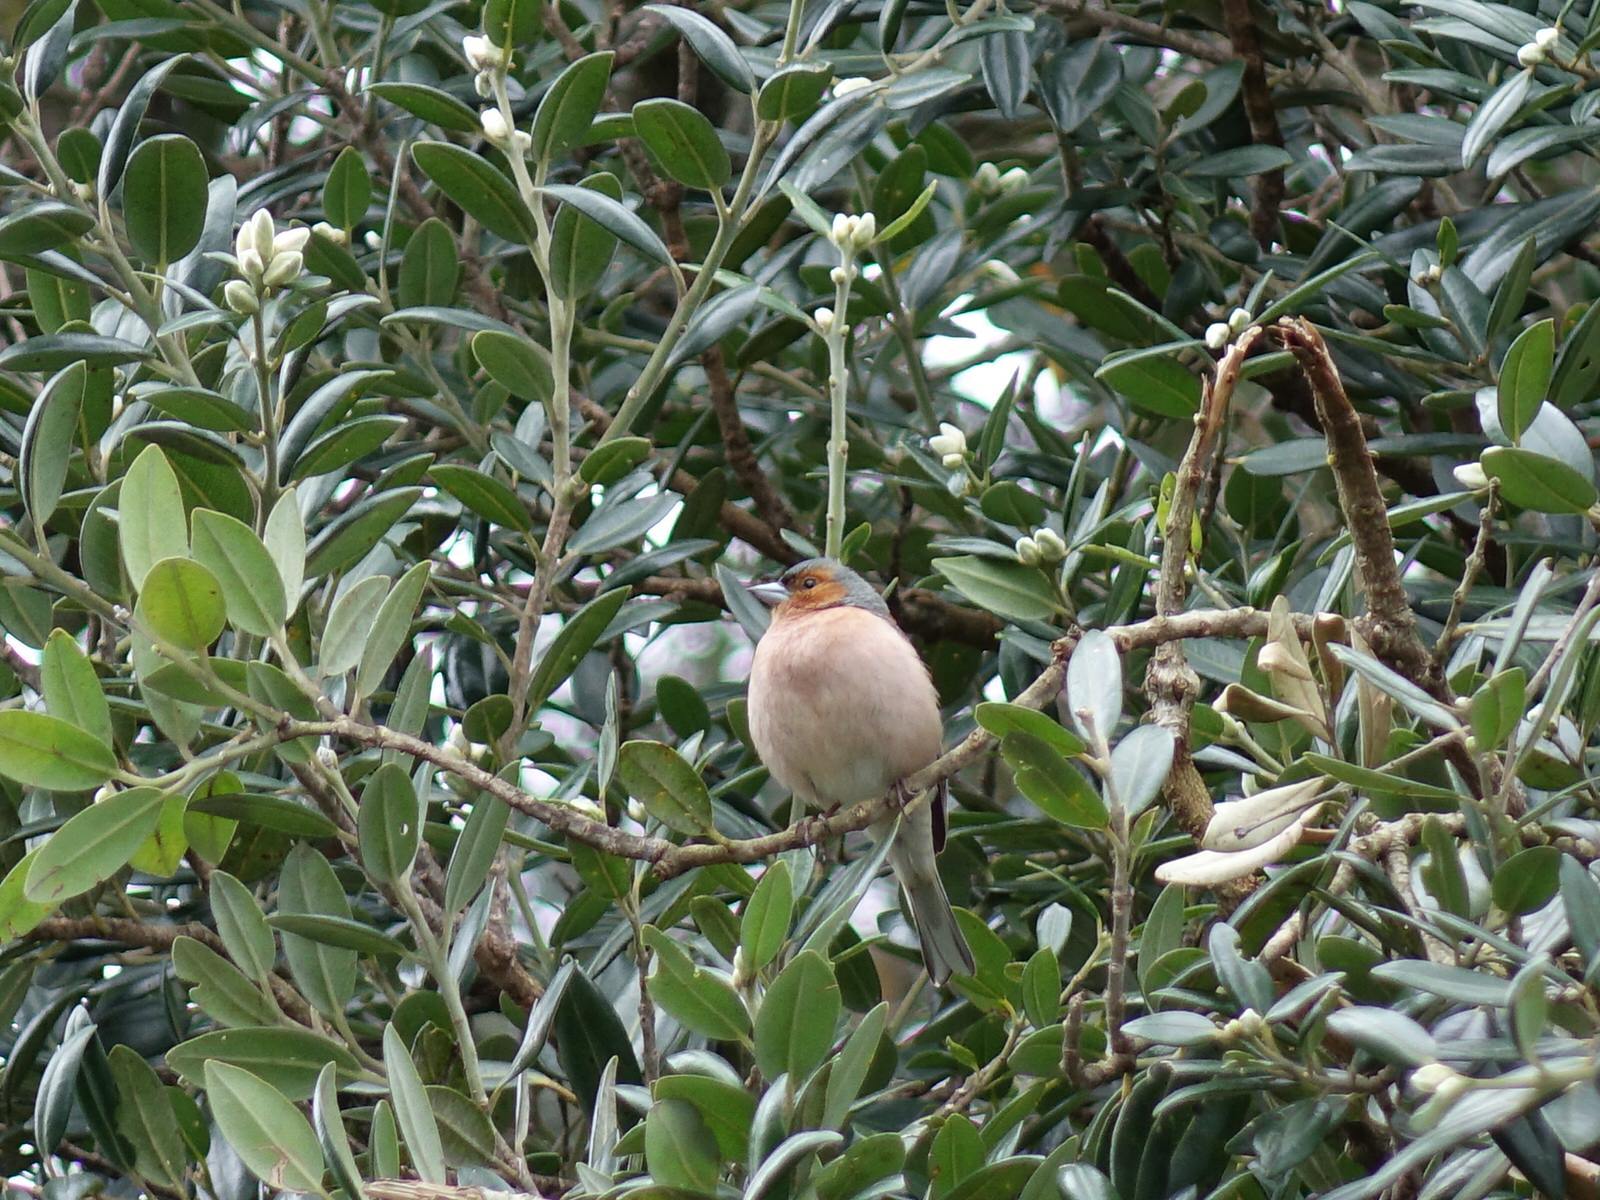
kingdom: Animalia
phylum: Chordata
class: Aves
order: Passeriformes
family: Fringillidae
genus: Fringilla
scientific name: Fringilla coelebs
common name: Common chaffinch
